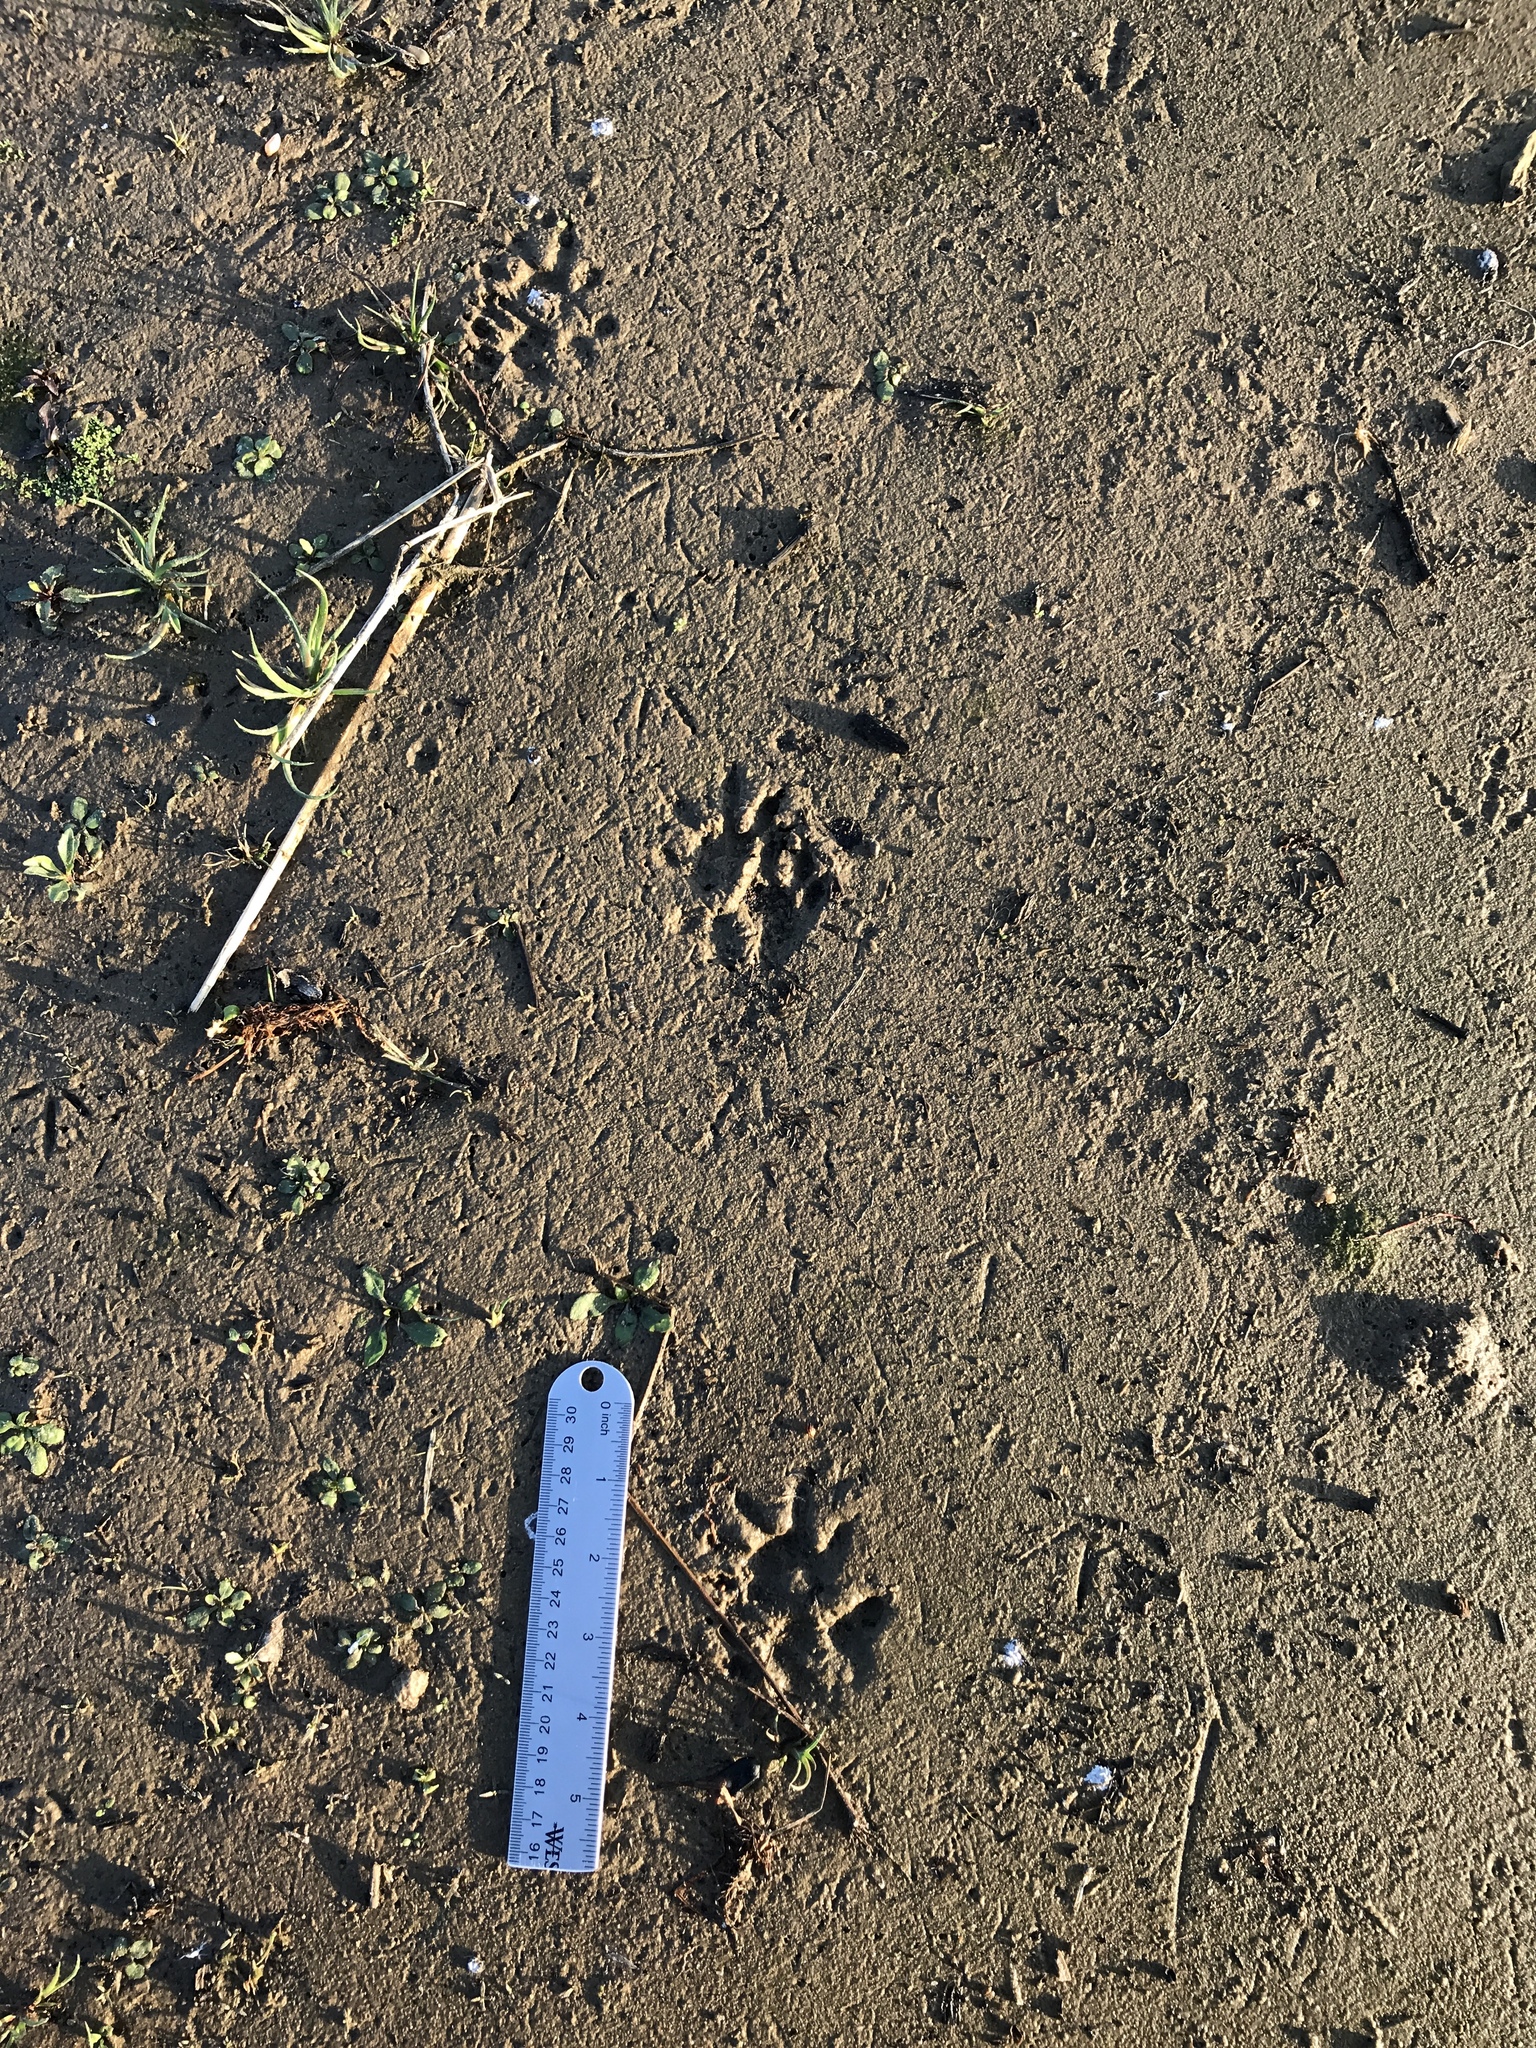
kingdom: Animalia
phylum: Chordata
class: Mammalia
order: Didelphimorphia
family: Didelphidae
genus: Didelphis
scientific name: Didelphis virginiana
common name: Virginia opossum
